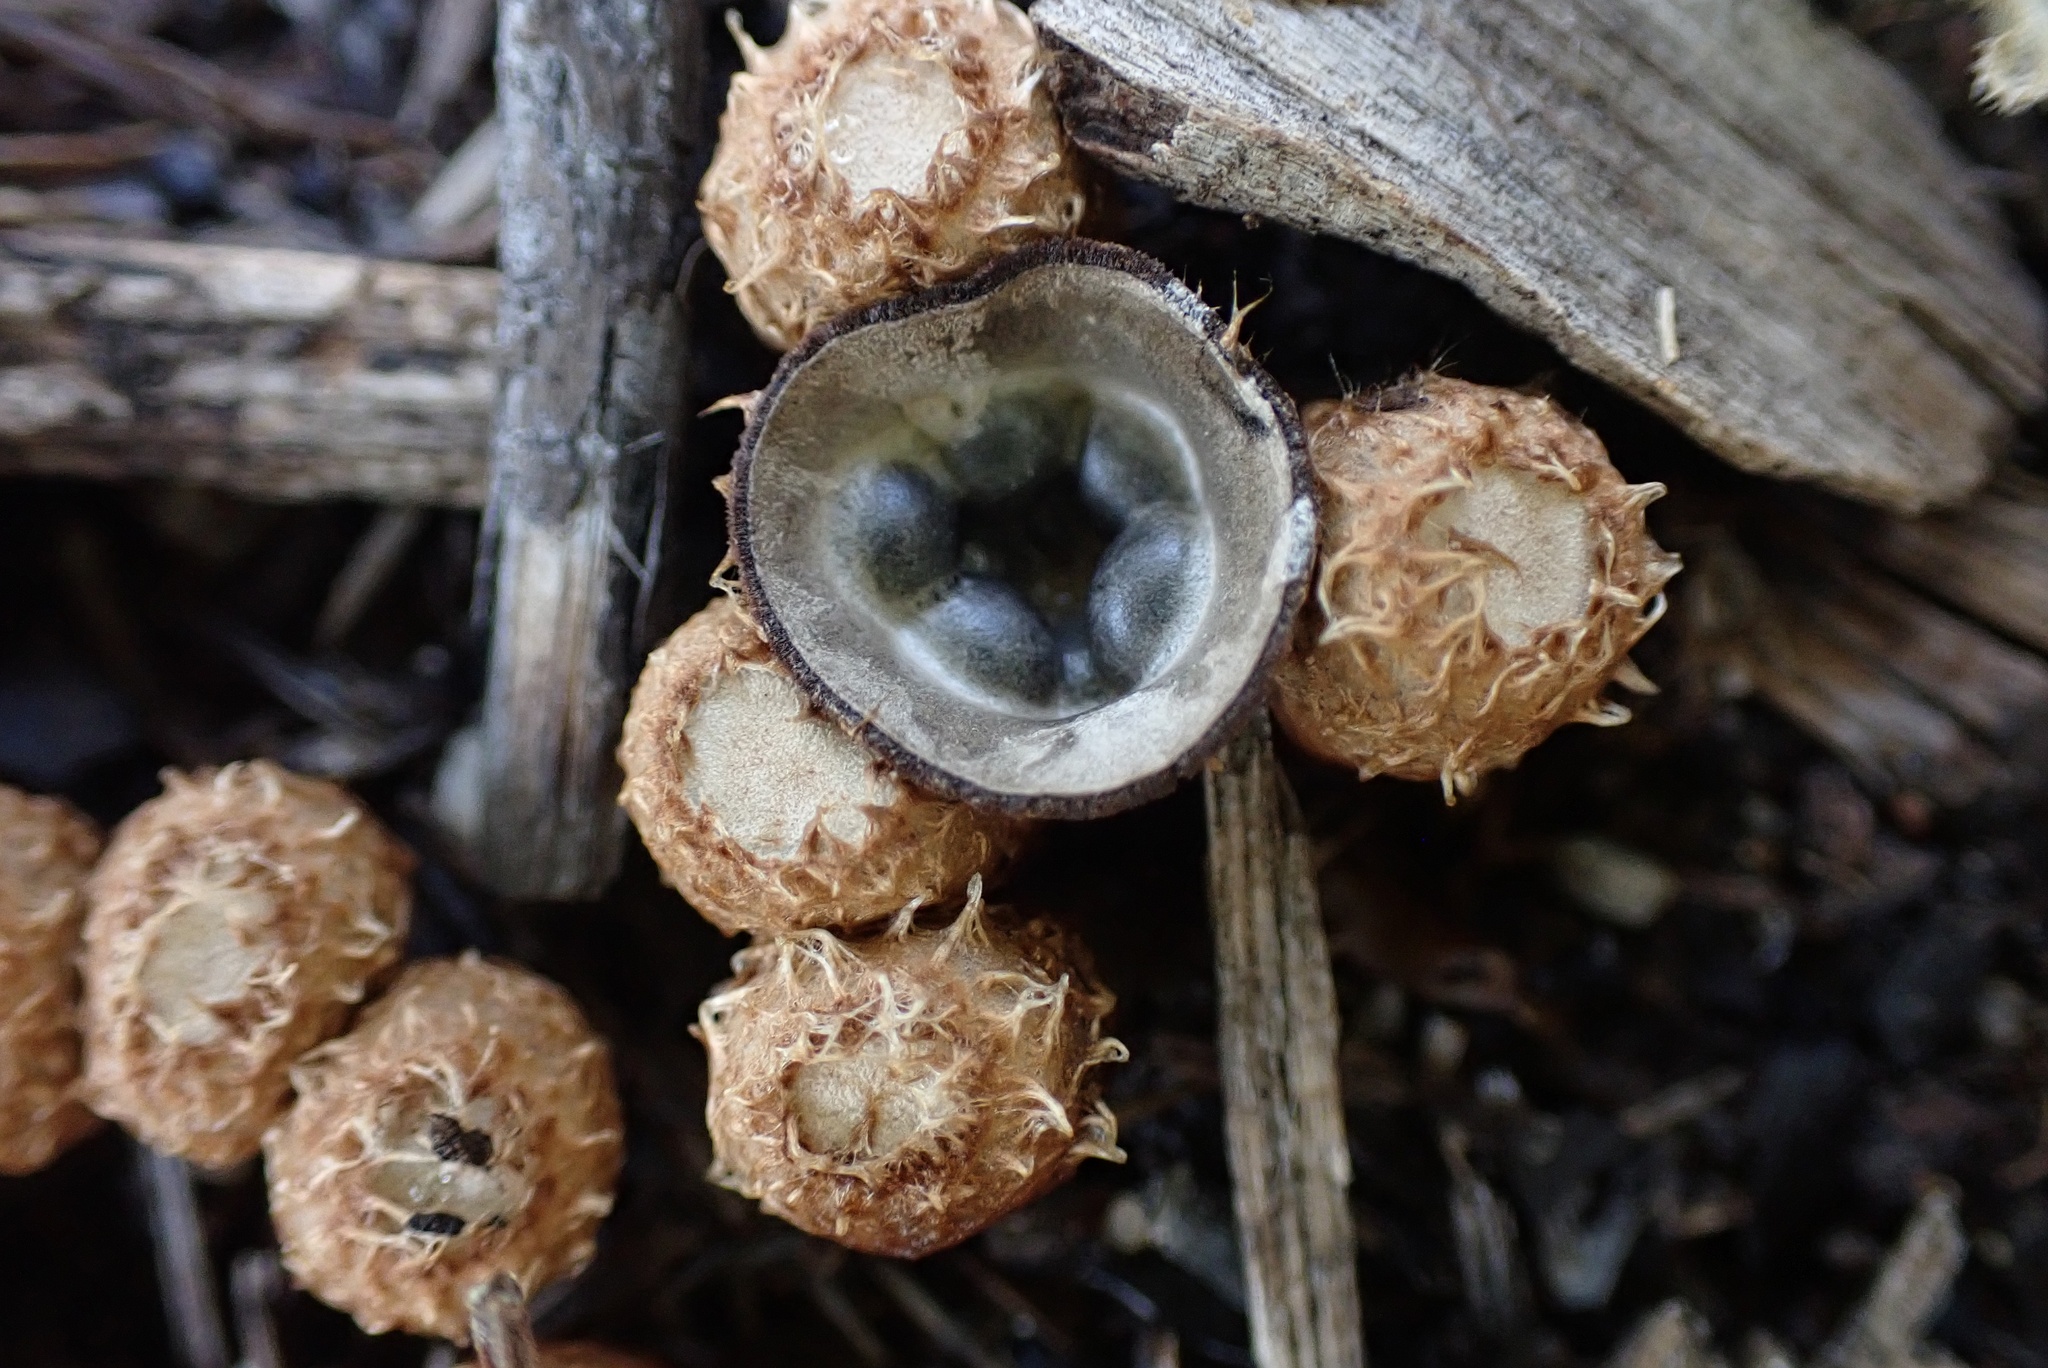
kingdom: Fungi
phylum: Basidiomycota
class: Agaricomycetes
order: Agaricales
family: Agaricaceae
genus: Cyathus
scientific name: Cyathus stercoreus
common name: Dung bird's nest
